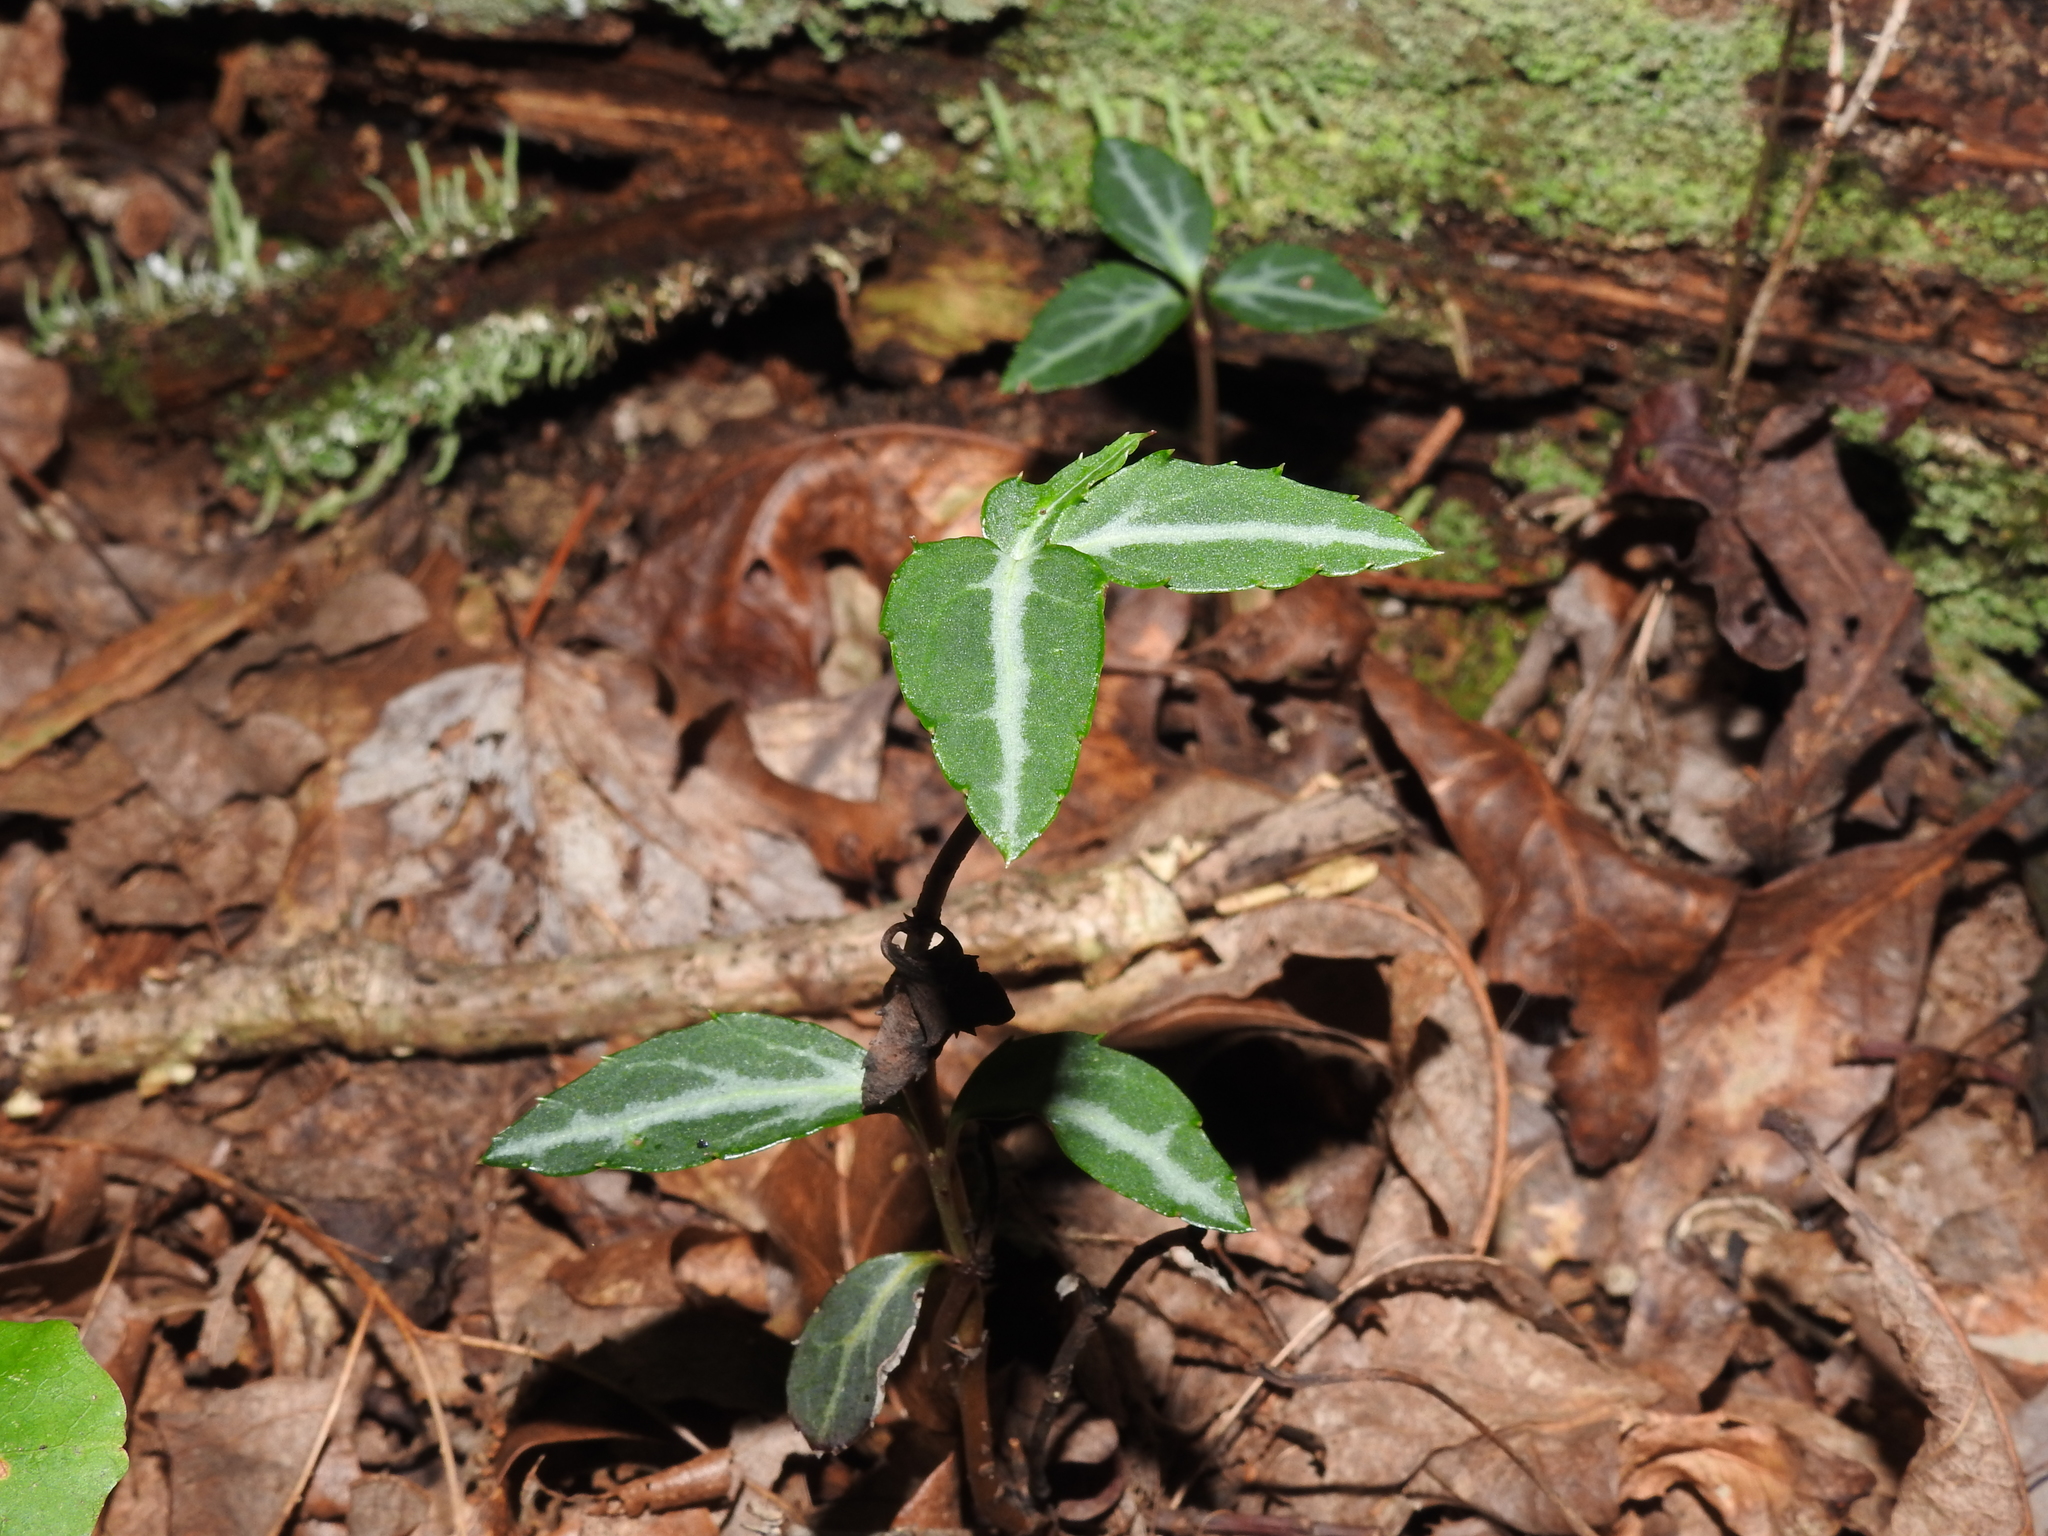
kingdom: Plantae
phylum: Tracheophyta
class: Magnoliopsida
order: Ericales
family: Ericaceae
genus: Chimaphila
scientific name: Chimaphila maculata
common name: Spotted pipsissewa
